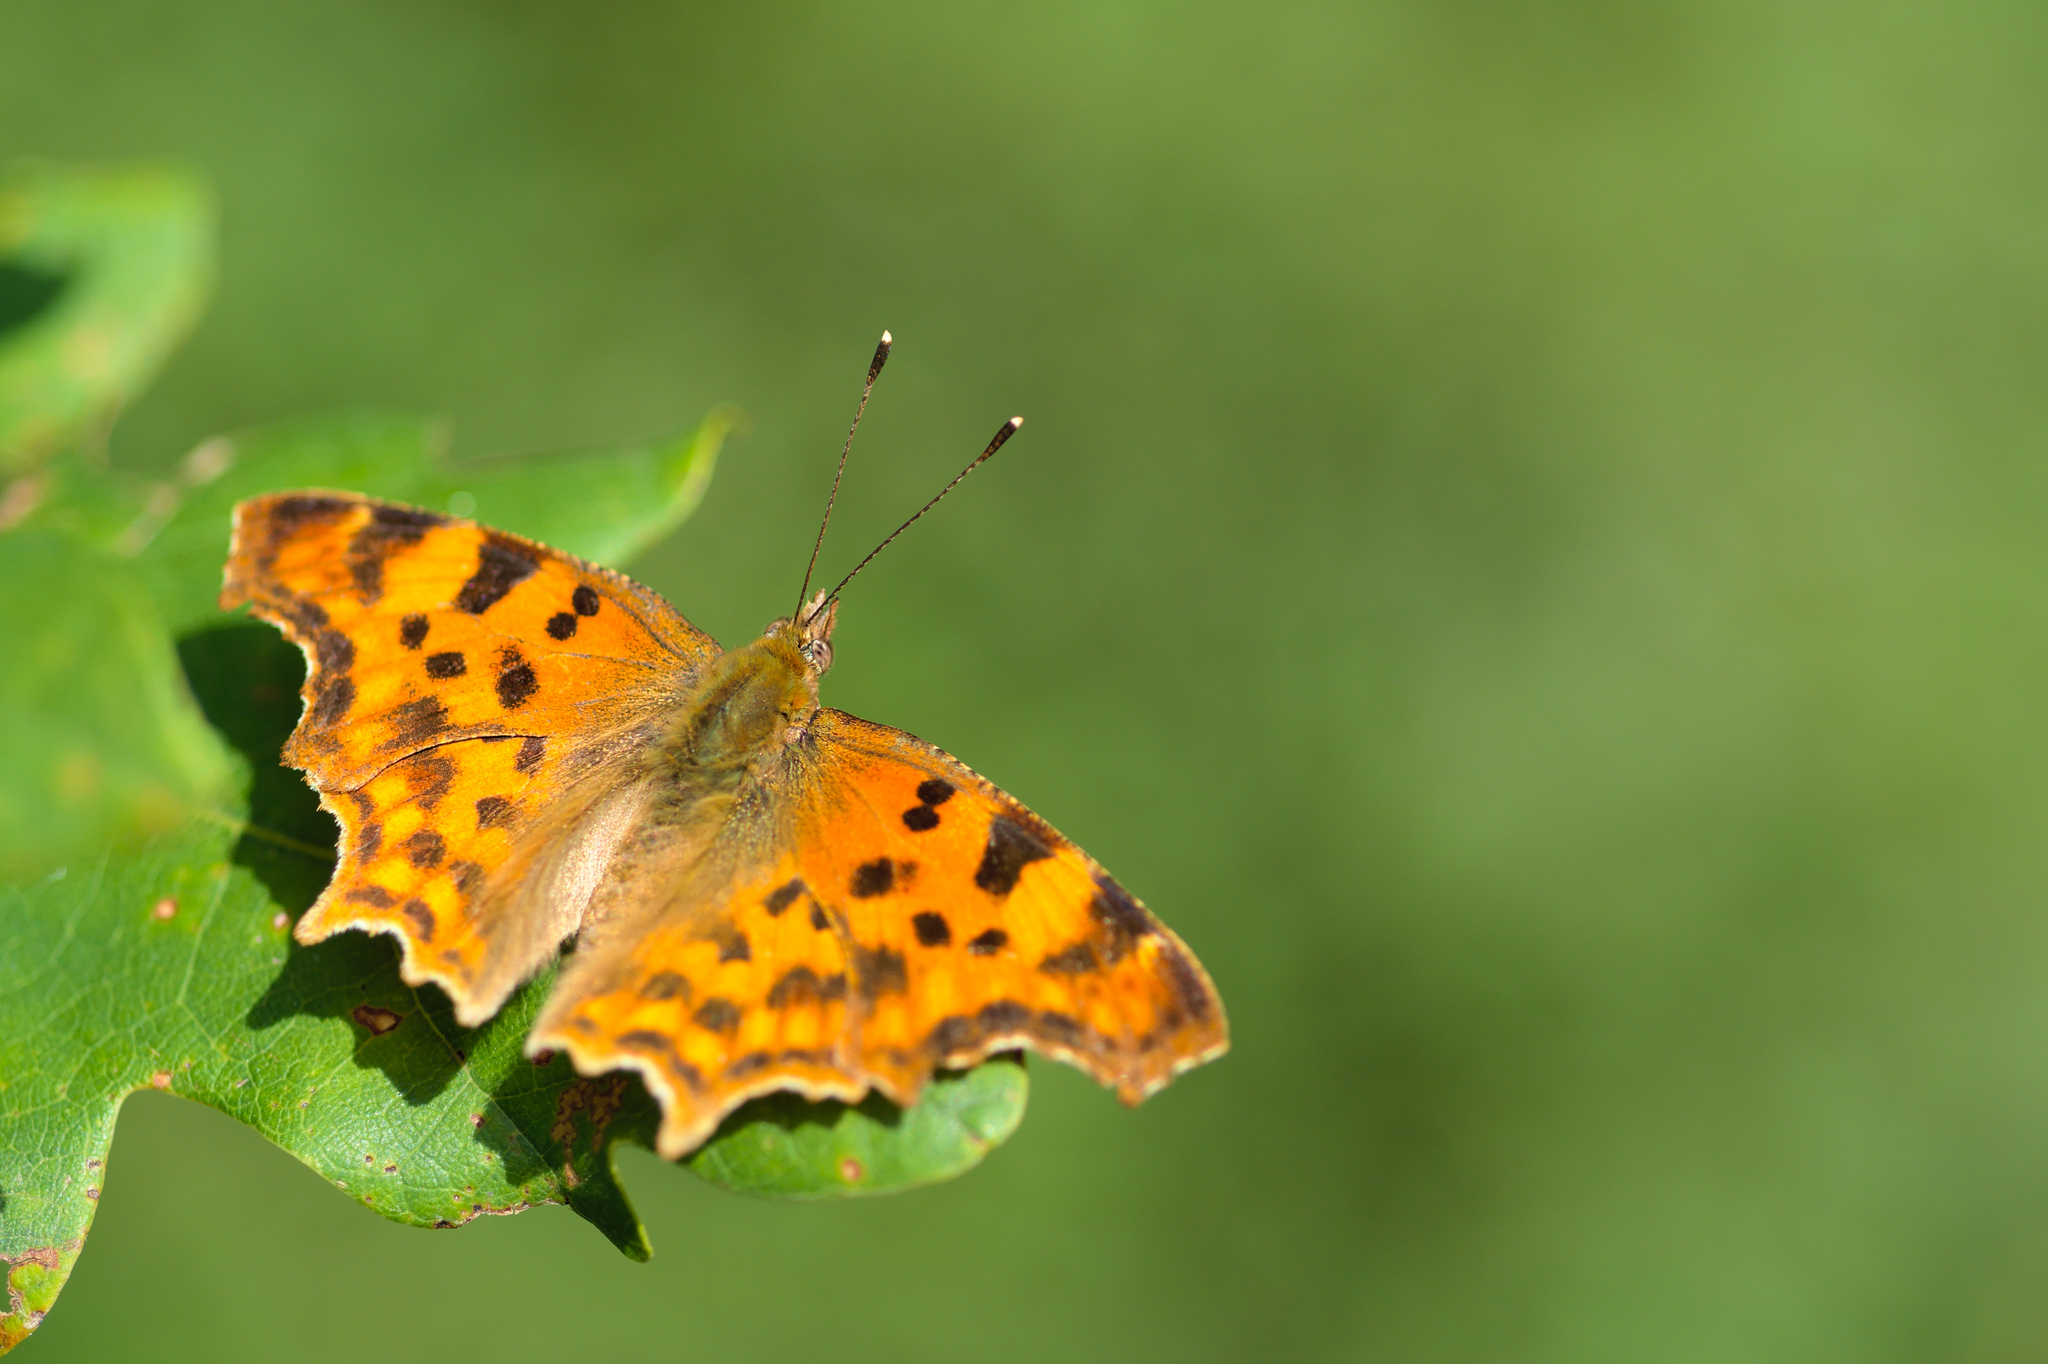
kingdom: Animalia
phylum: Arthropoda
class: Insecta
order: Lepidoptera
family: Nymphalidae
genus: Polygonia
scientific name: Polygonia c-album
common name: Comma
